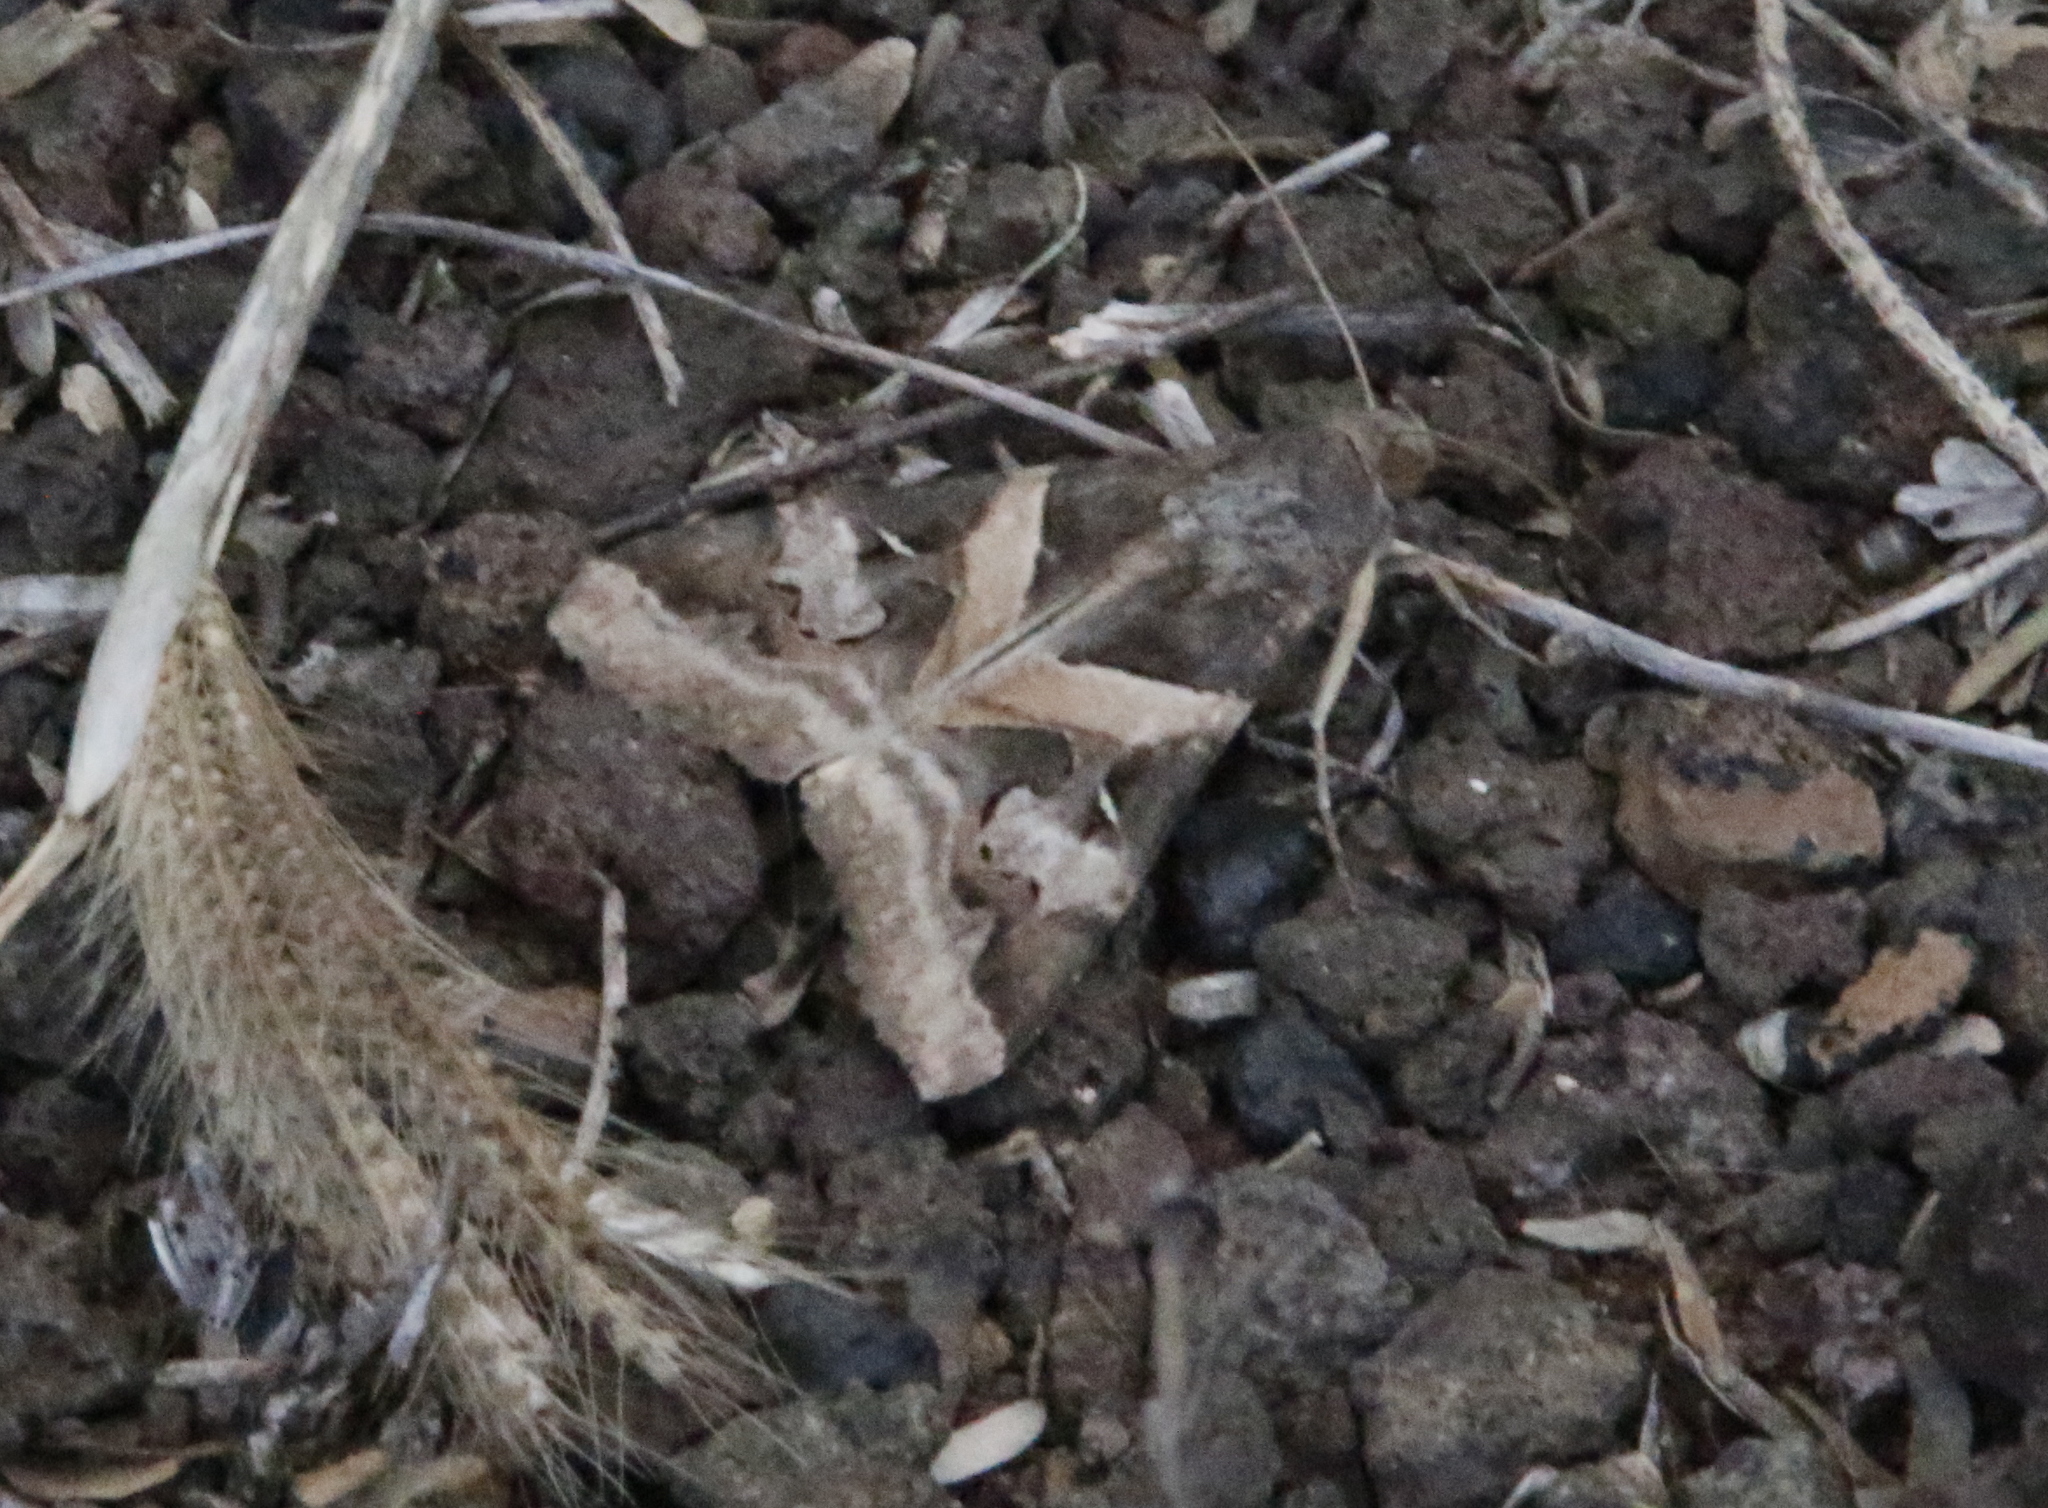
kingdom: Animalia
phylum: Arthropoda
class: Insecta
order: Lepidoptera
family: Erebidae
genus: Melipotis
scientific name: Melipotis indomita
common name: Moth
